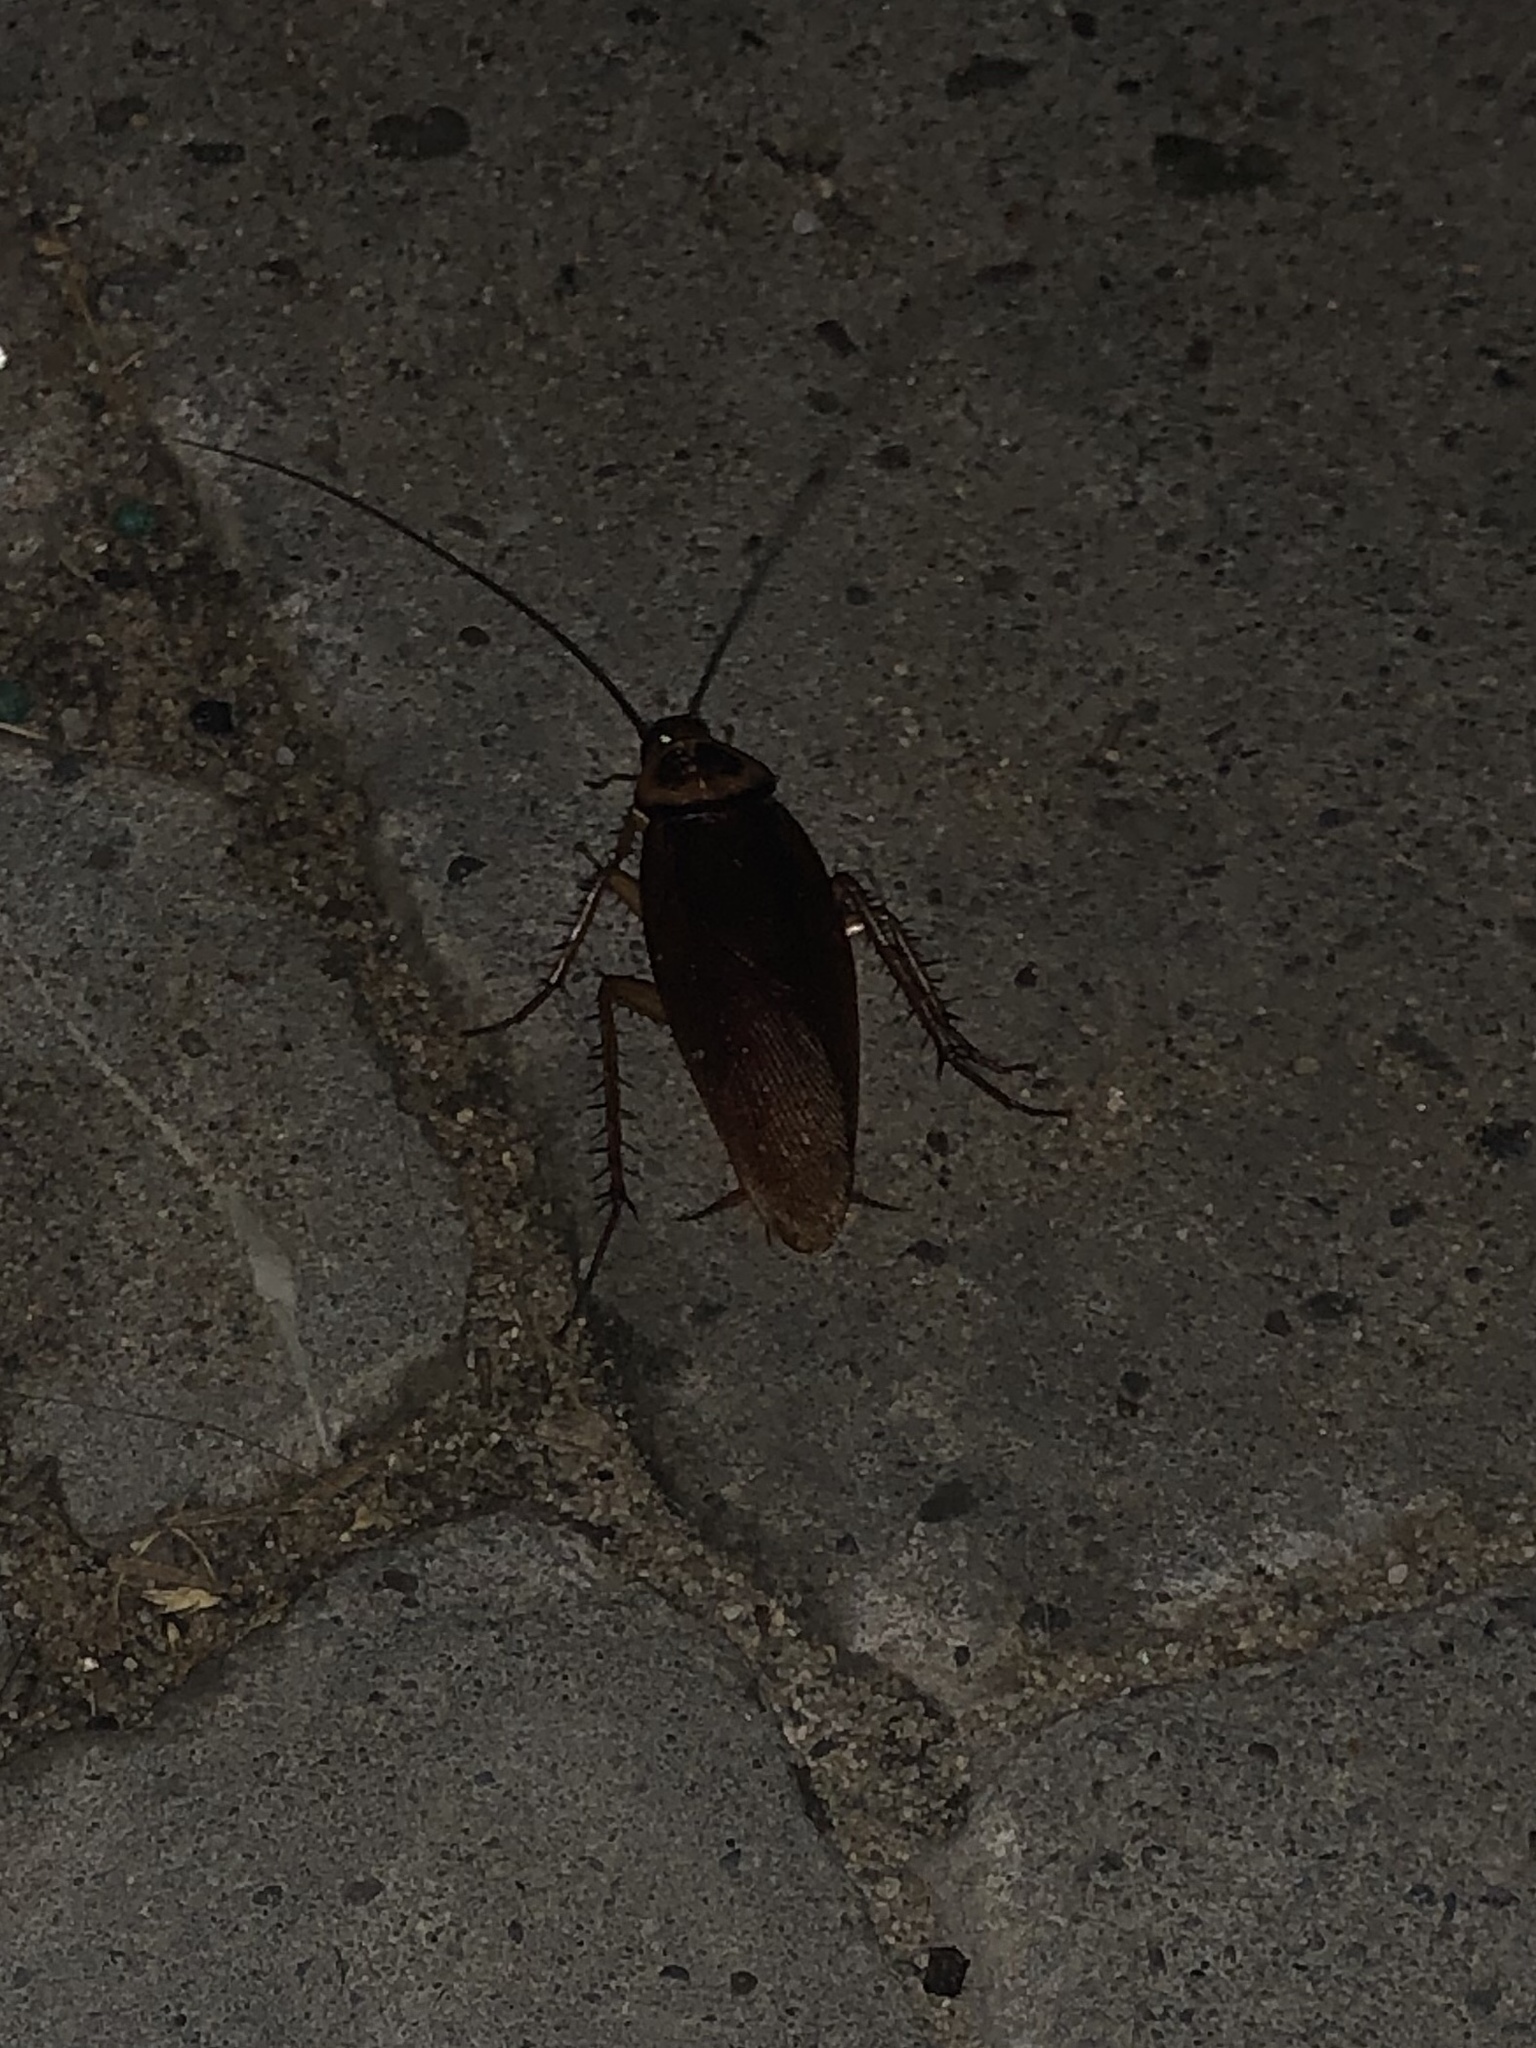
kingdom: Animalia
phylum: Arthropoda
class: Insecta
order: Blattodea
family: Blattidae
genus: Periplaneta
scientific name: Periplaneta americana
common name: American cockroach
